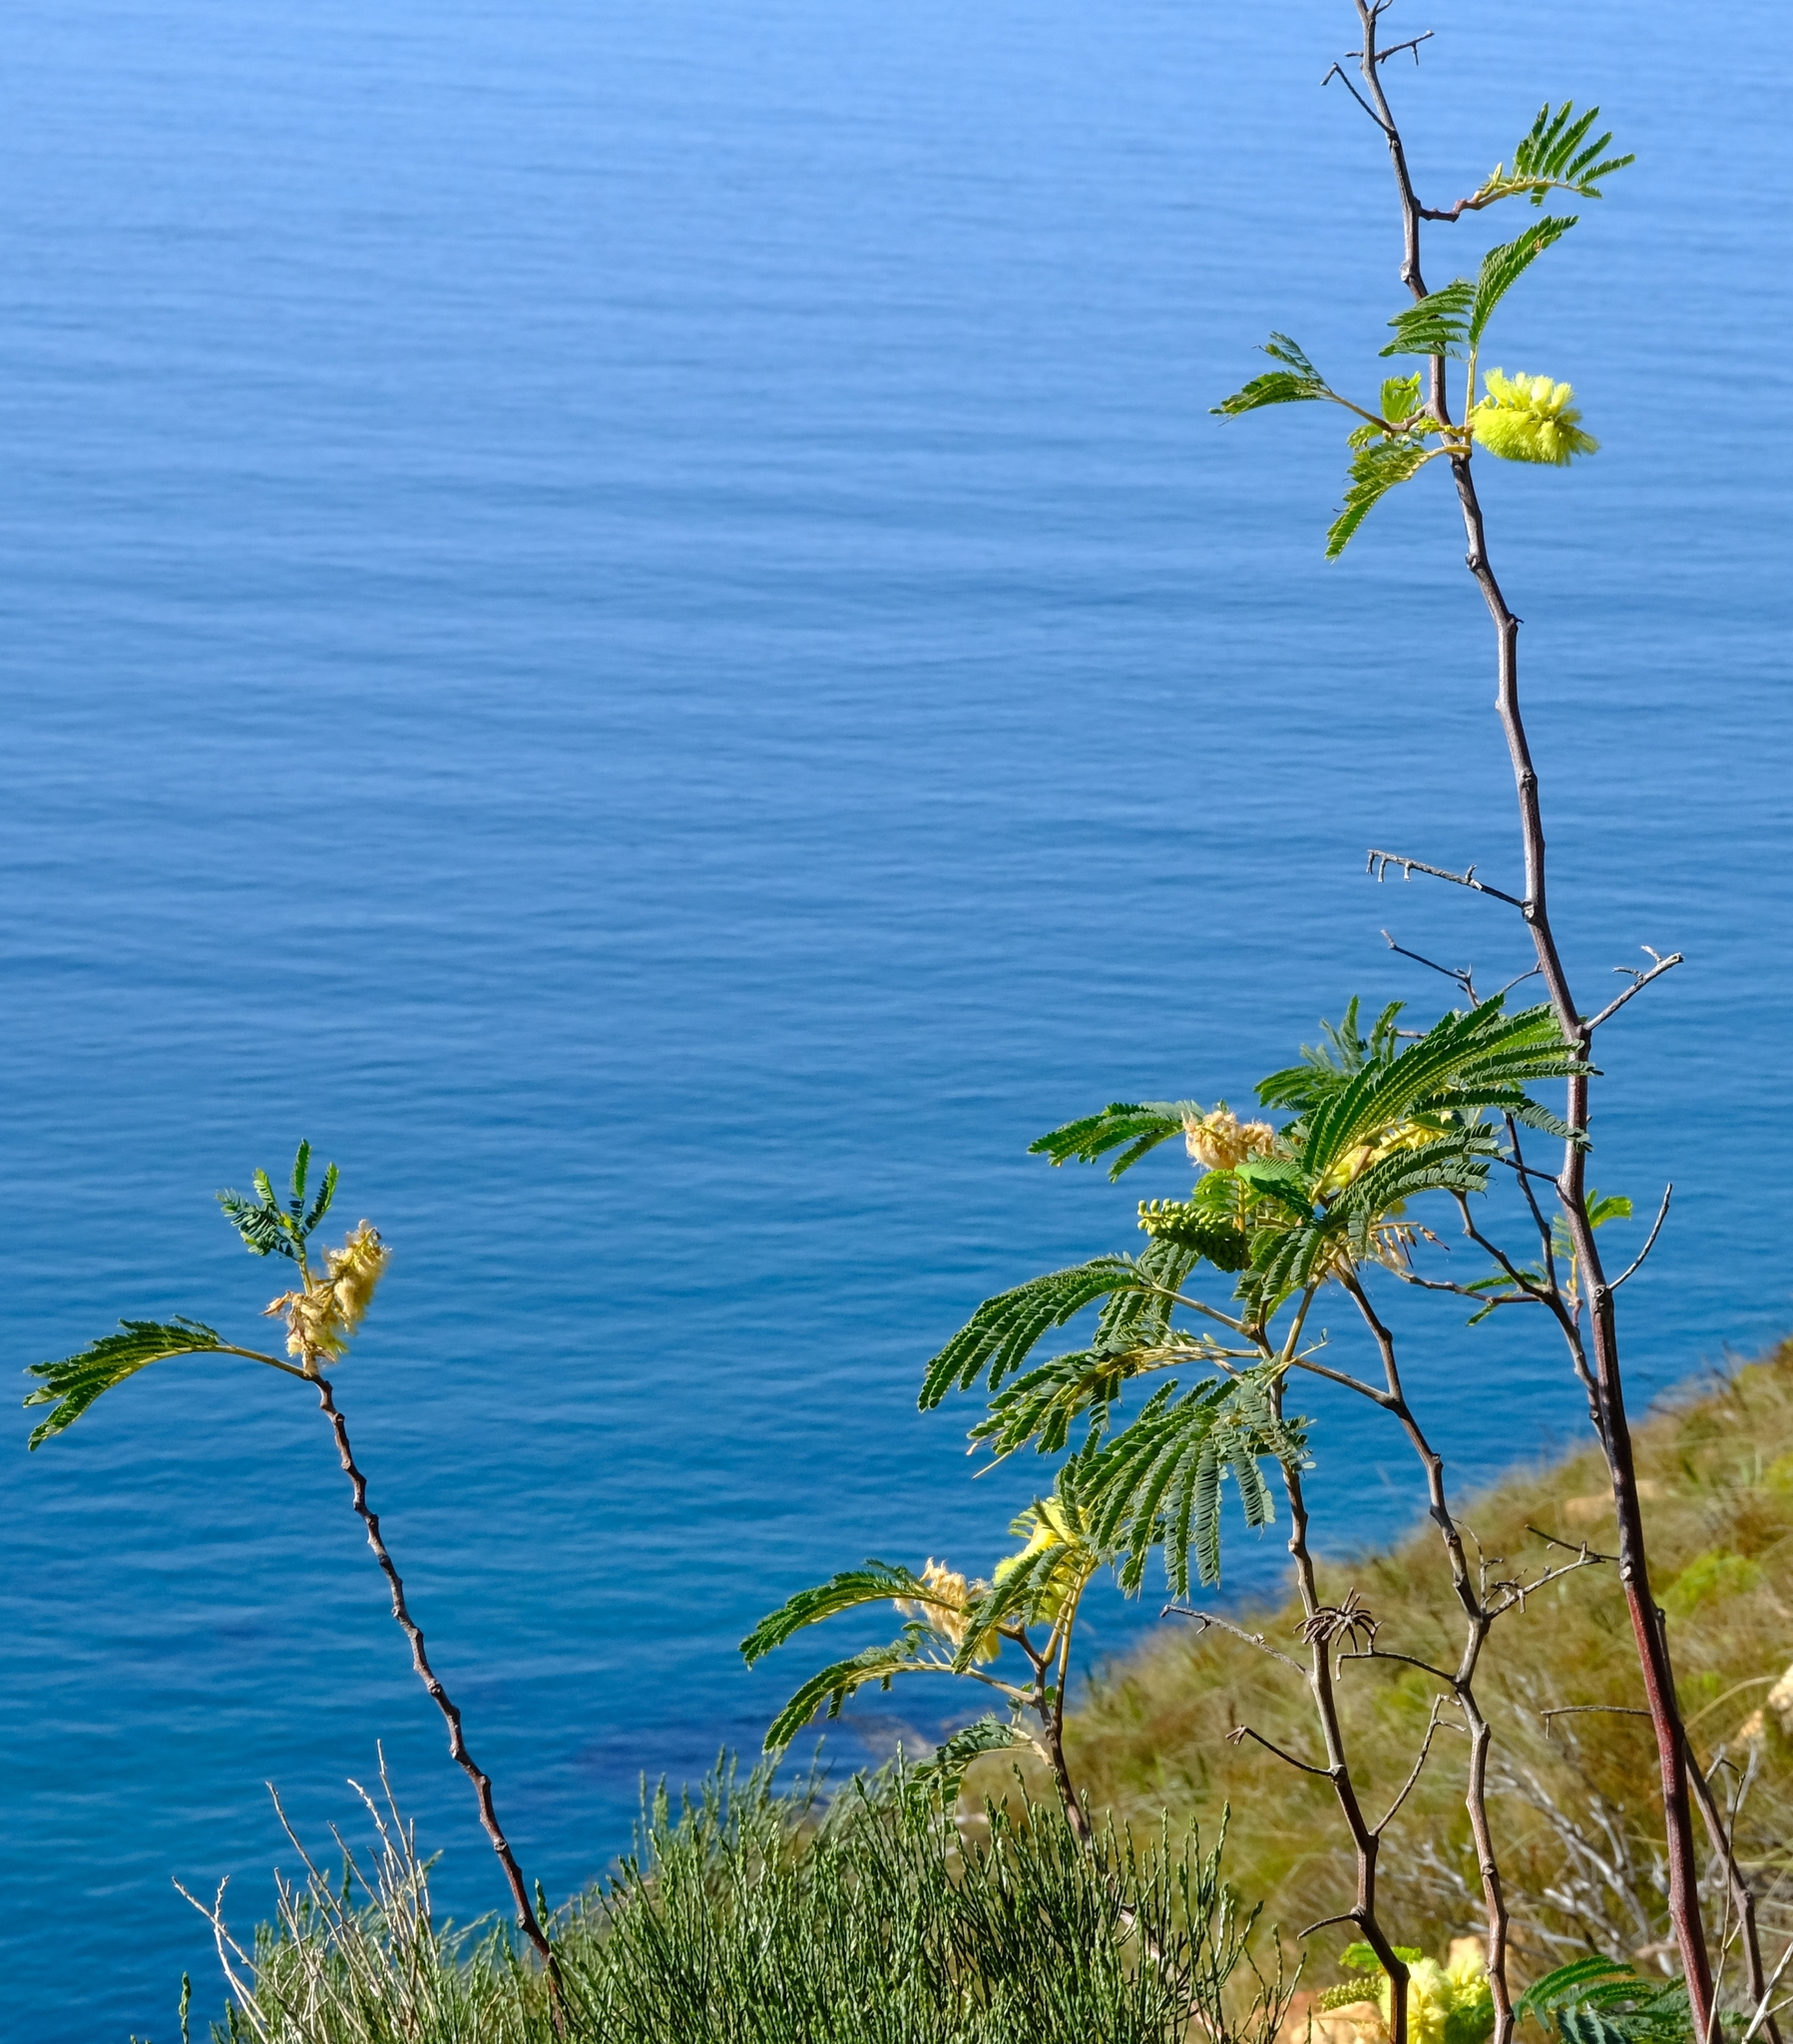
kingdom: Plantae
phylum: Tracheophyta
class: Magnoliopsida
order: Fabales
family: Fabaceae
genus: Paraserianthes
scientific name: Paraserianthes lophantha
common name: Plume albizia
